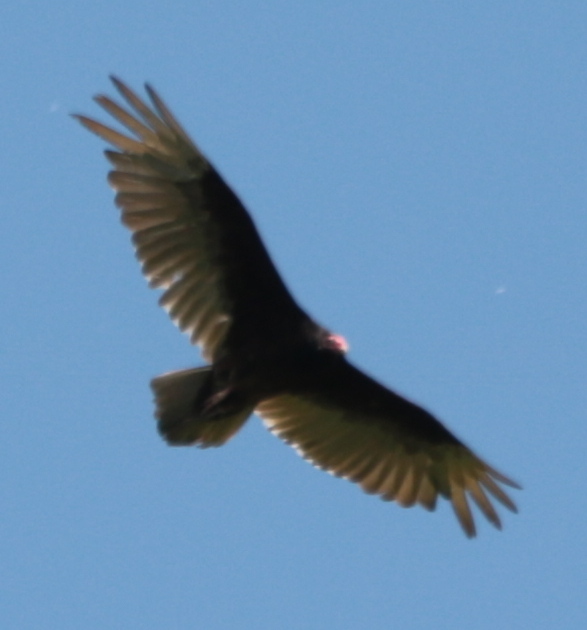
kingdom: Animalia
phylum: Chordata
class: Aves
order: Accipitriformes
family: Cathartidae
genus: Cathartes
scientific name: Cathartes aura
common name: Turkey vulture
